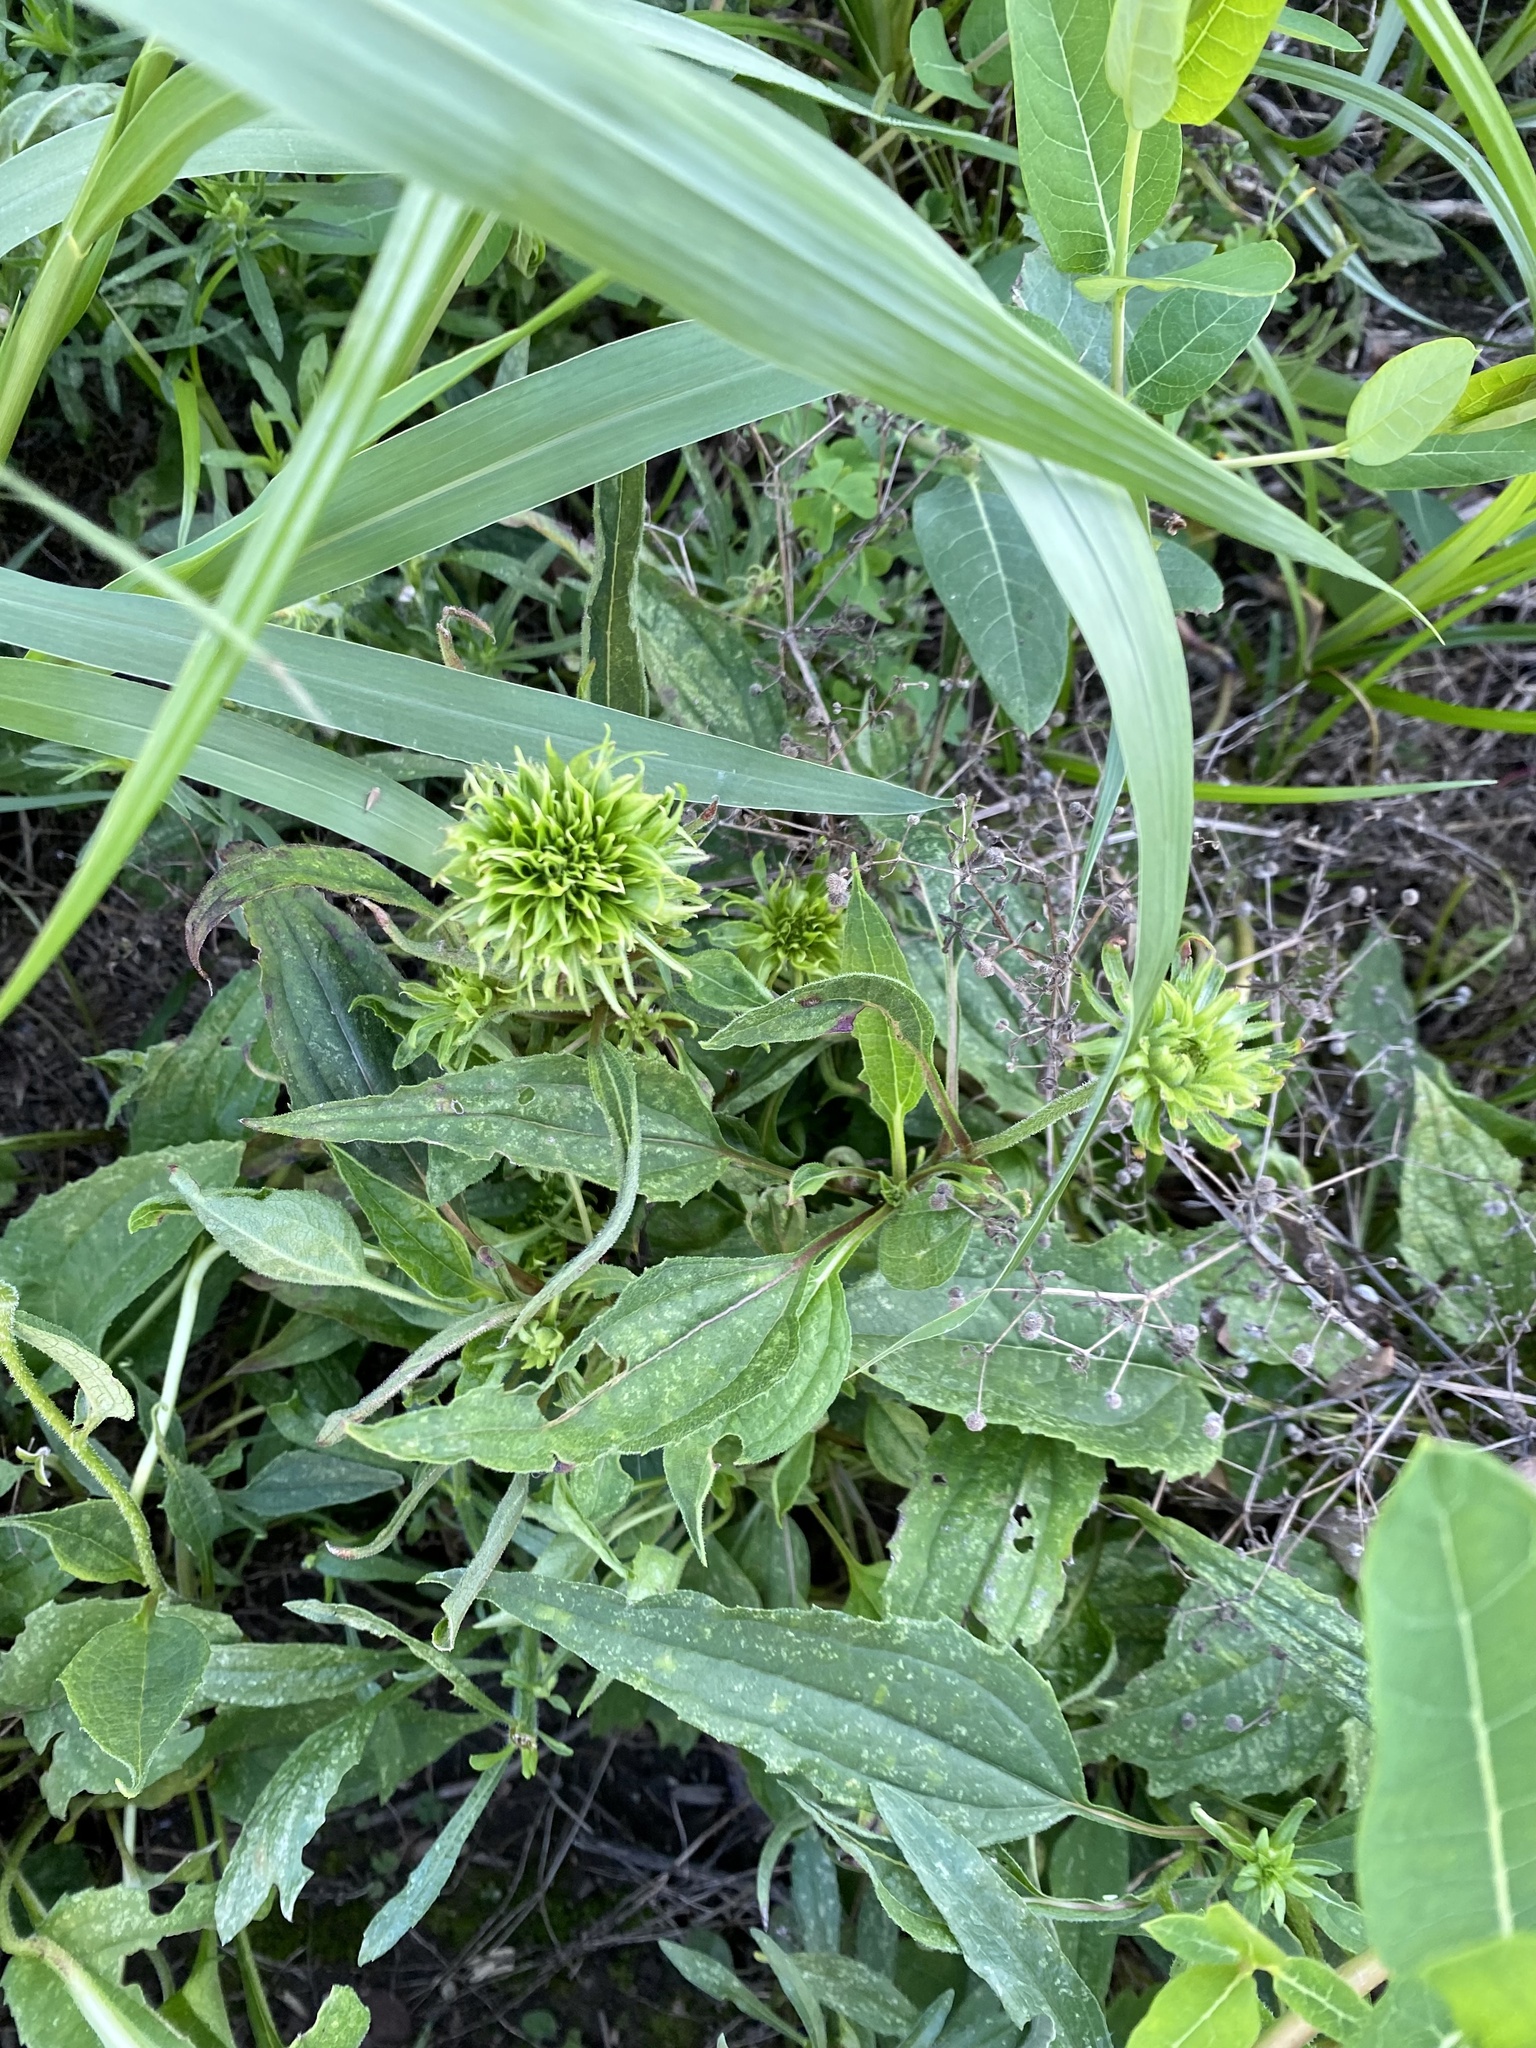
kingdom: Bacteria
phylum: Firmicutes
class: Bacilli
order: Acholeplasmatales
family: Acholeplasmataceae
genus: Phytoplasma
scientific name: Phytoplasma
